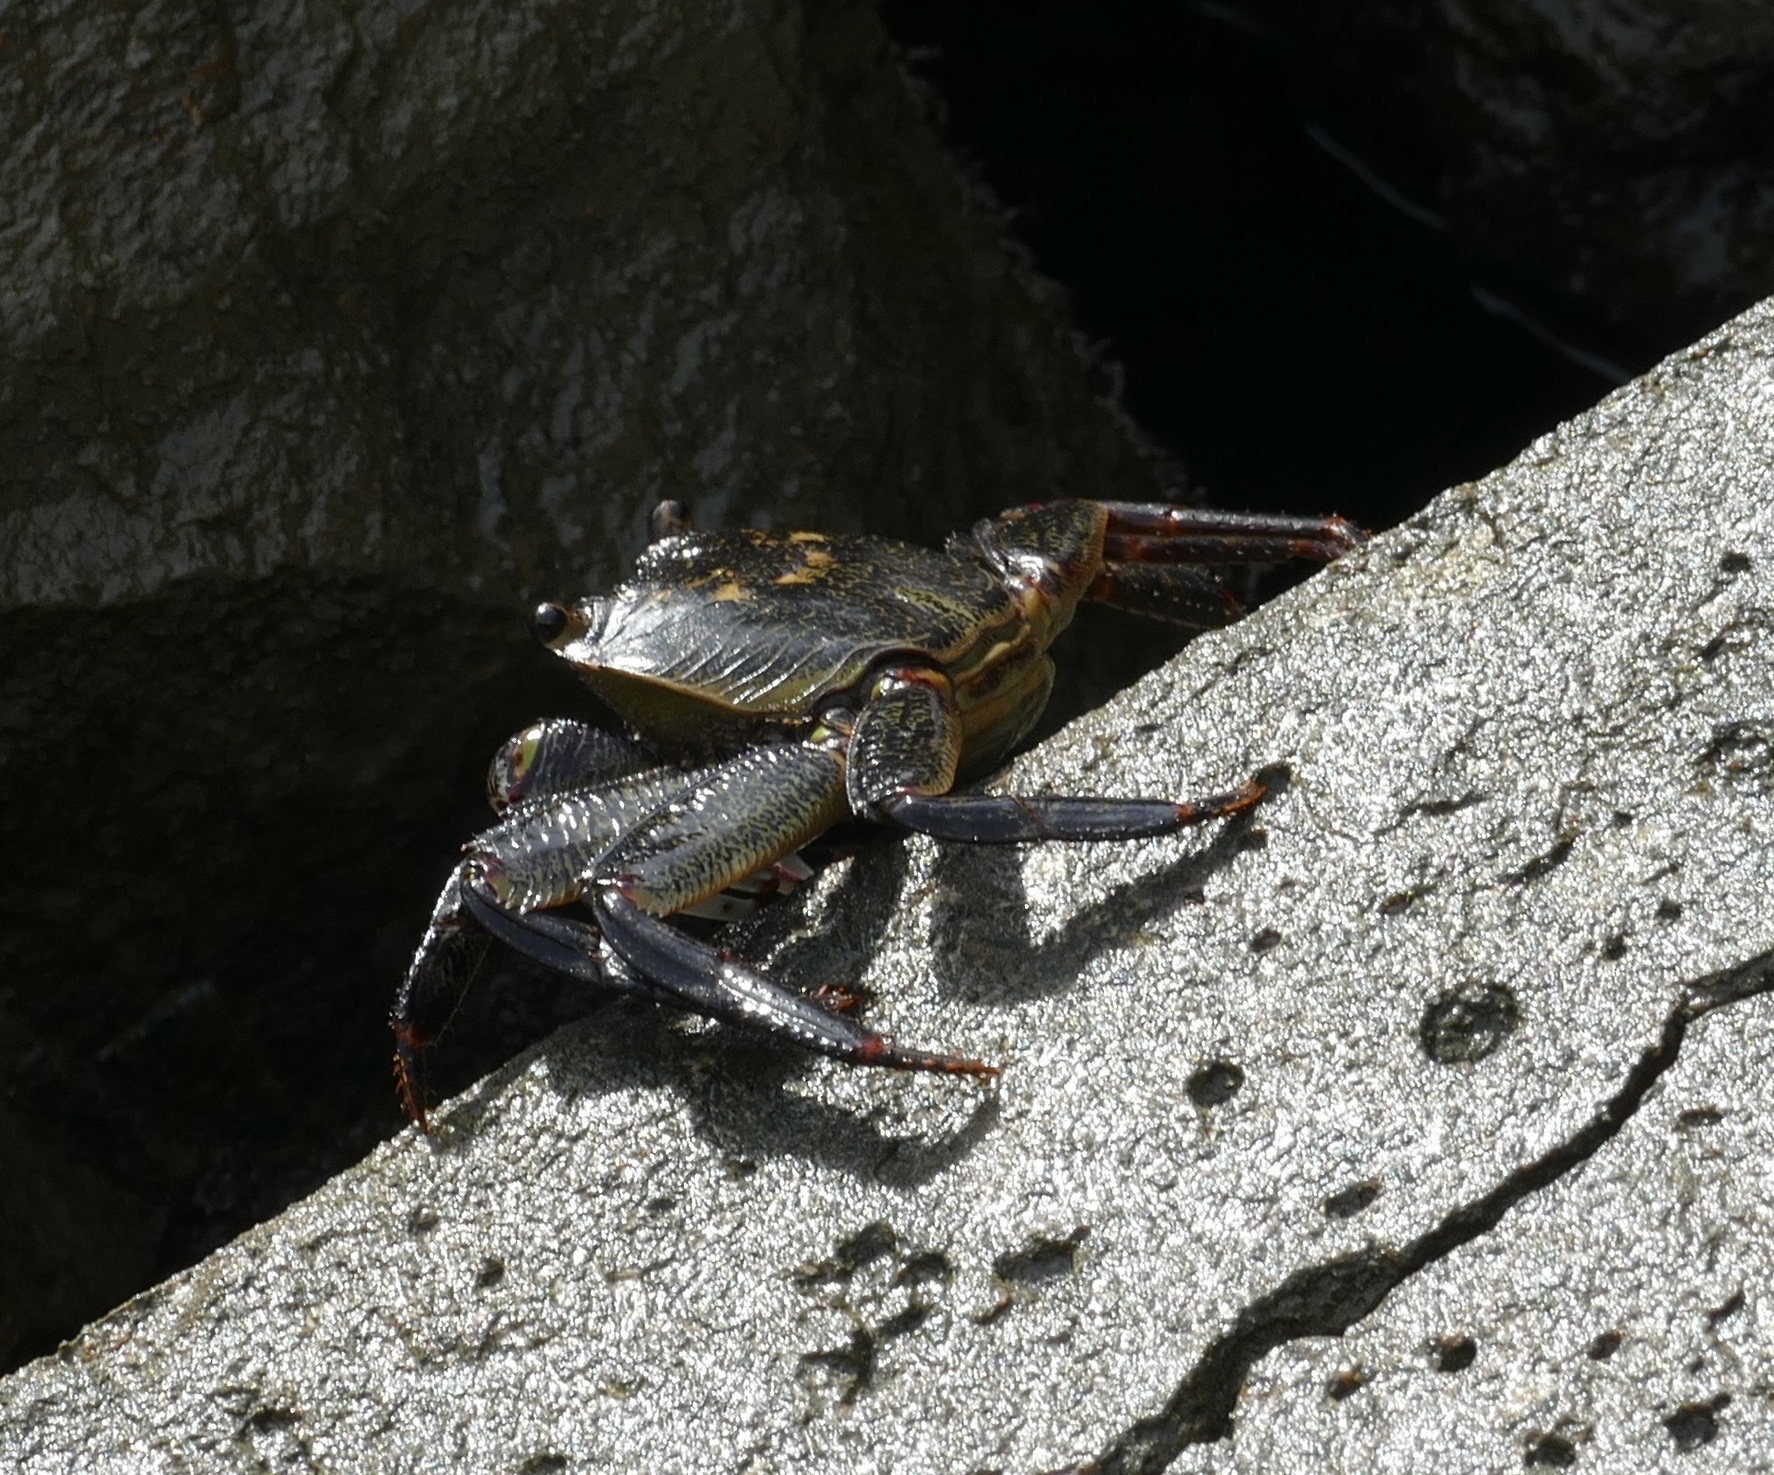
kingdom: Animalia
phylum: Arthropoda
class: Malacostraca
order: Decapoda
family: Grapsidae
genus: Leptograpsus
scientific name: Leptograpsus variegatus
